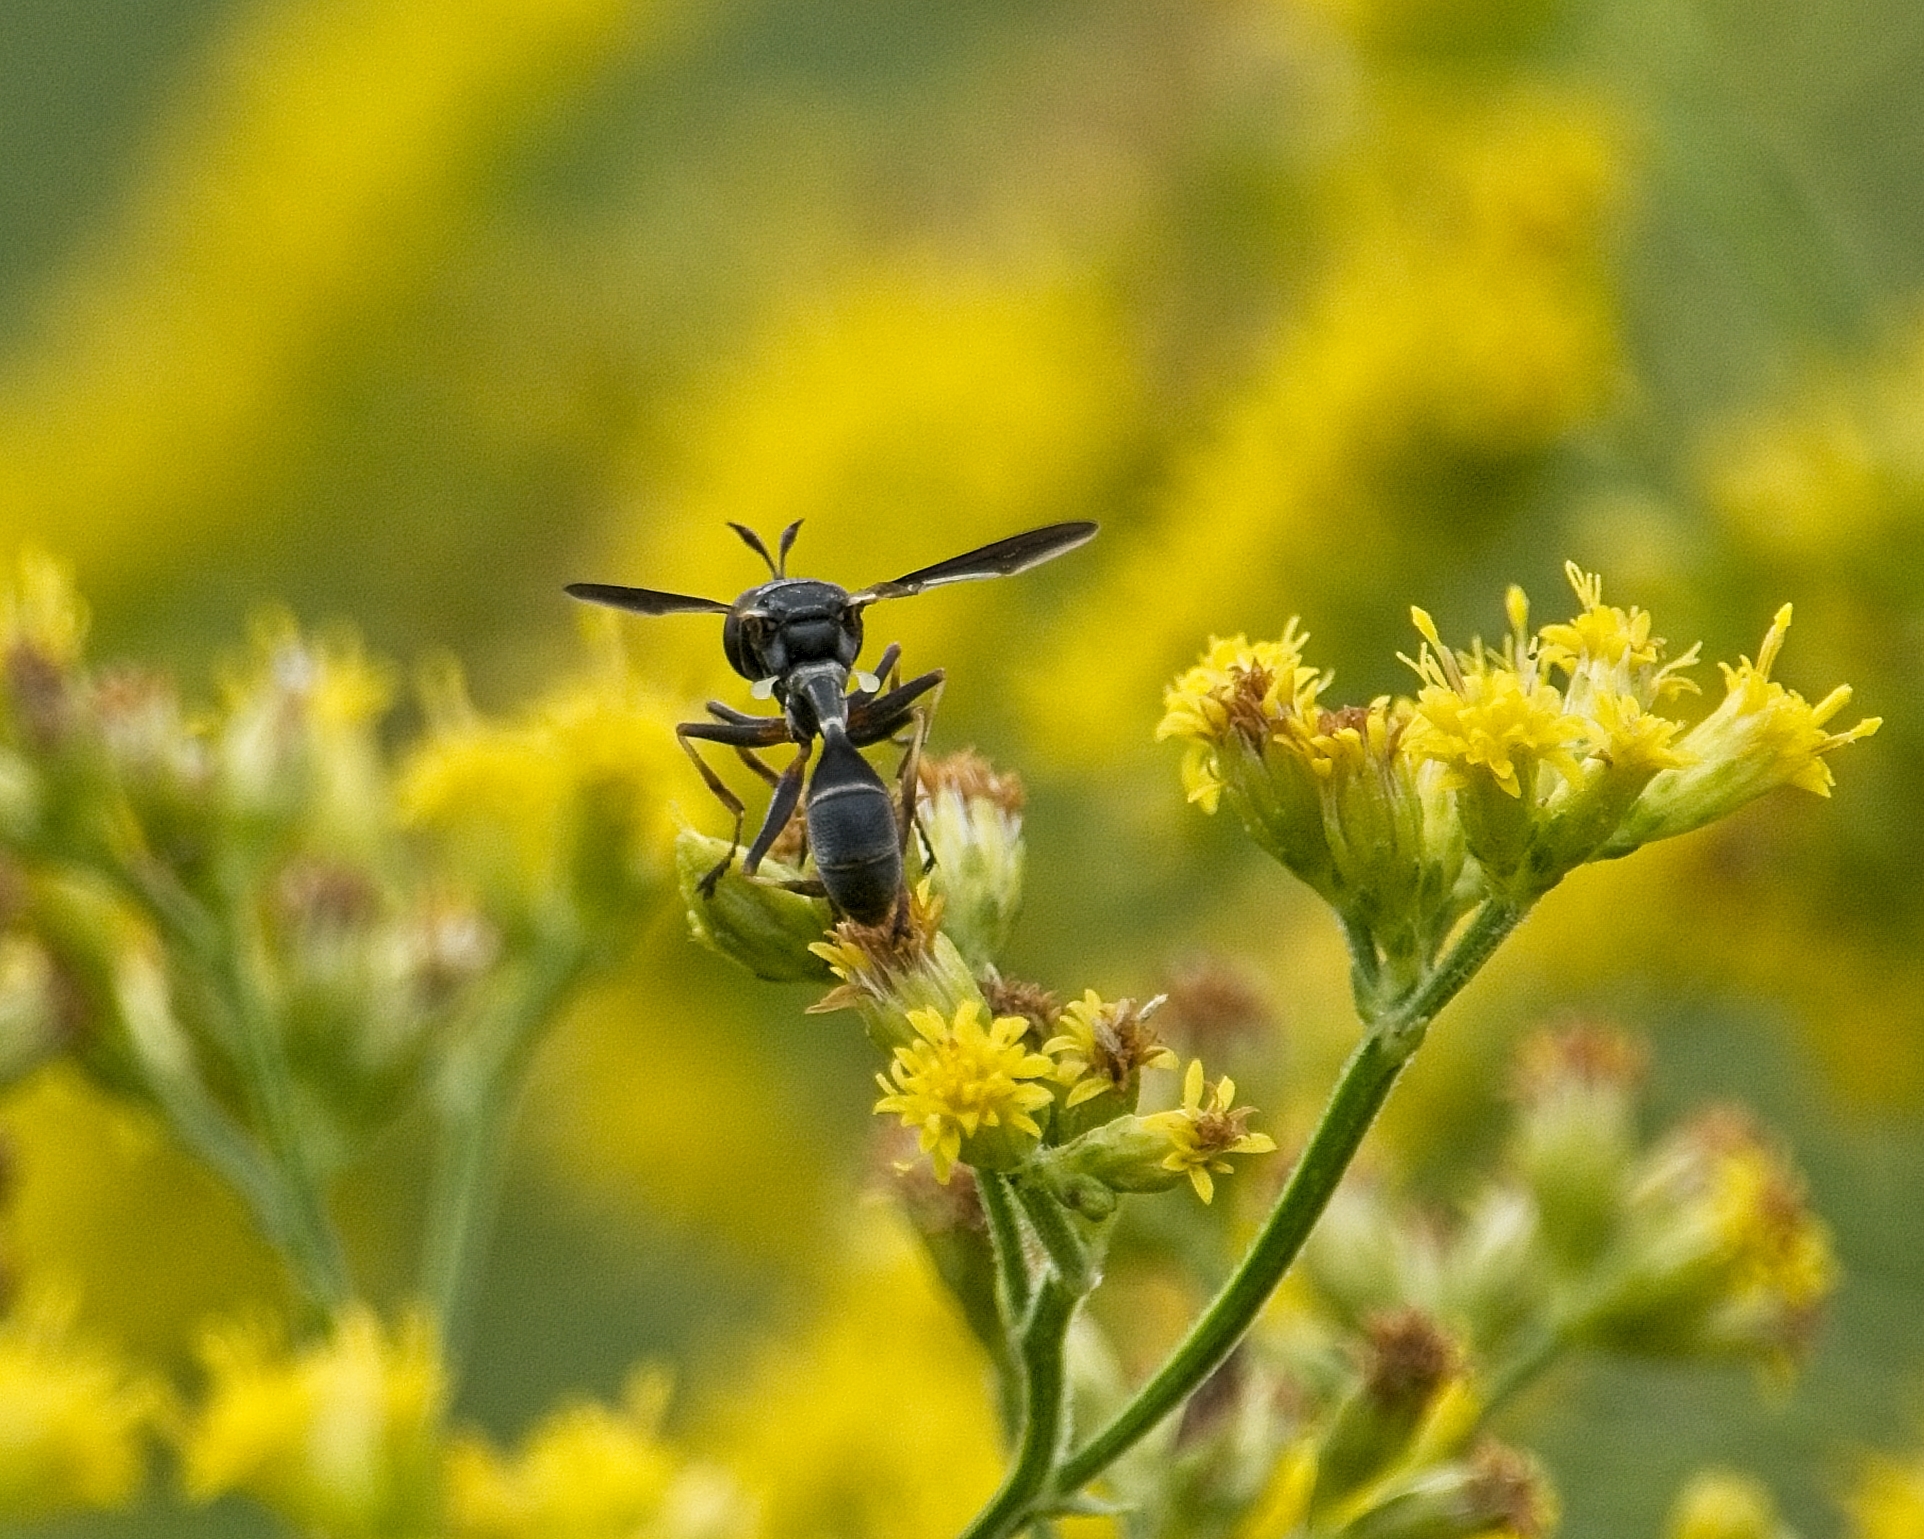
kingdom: Animalia
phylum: Arthropoda
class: Insecta
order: Diptera
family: Conopidae
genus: Physocephala
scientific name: Physocephala tibialis
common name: Common eastern physocephala
